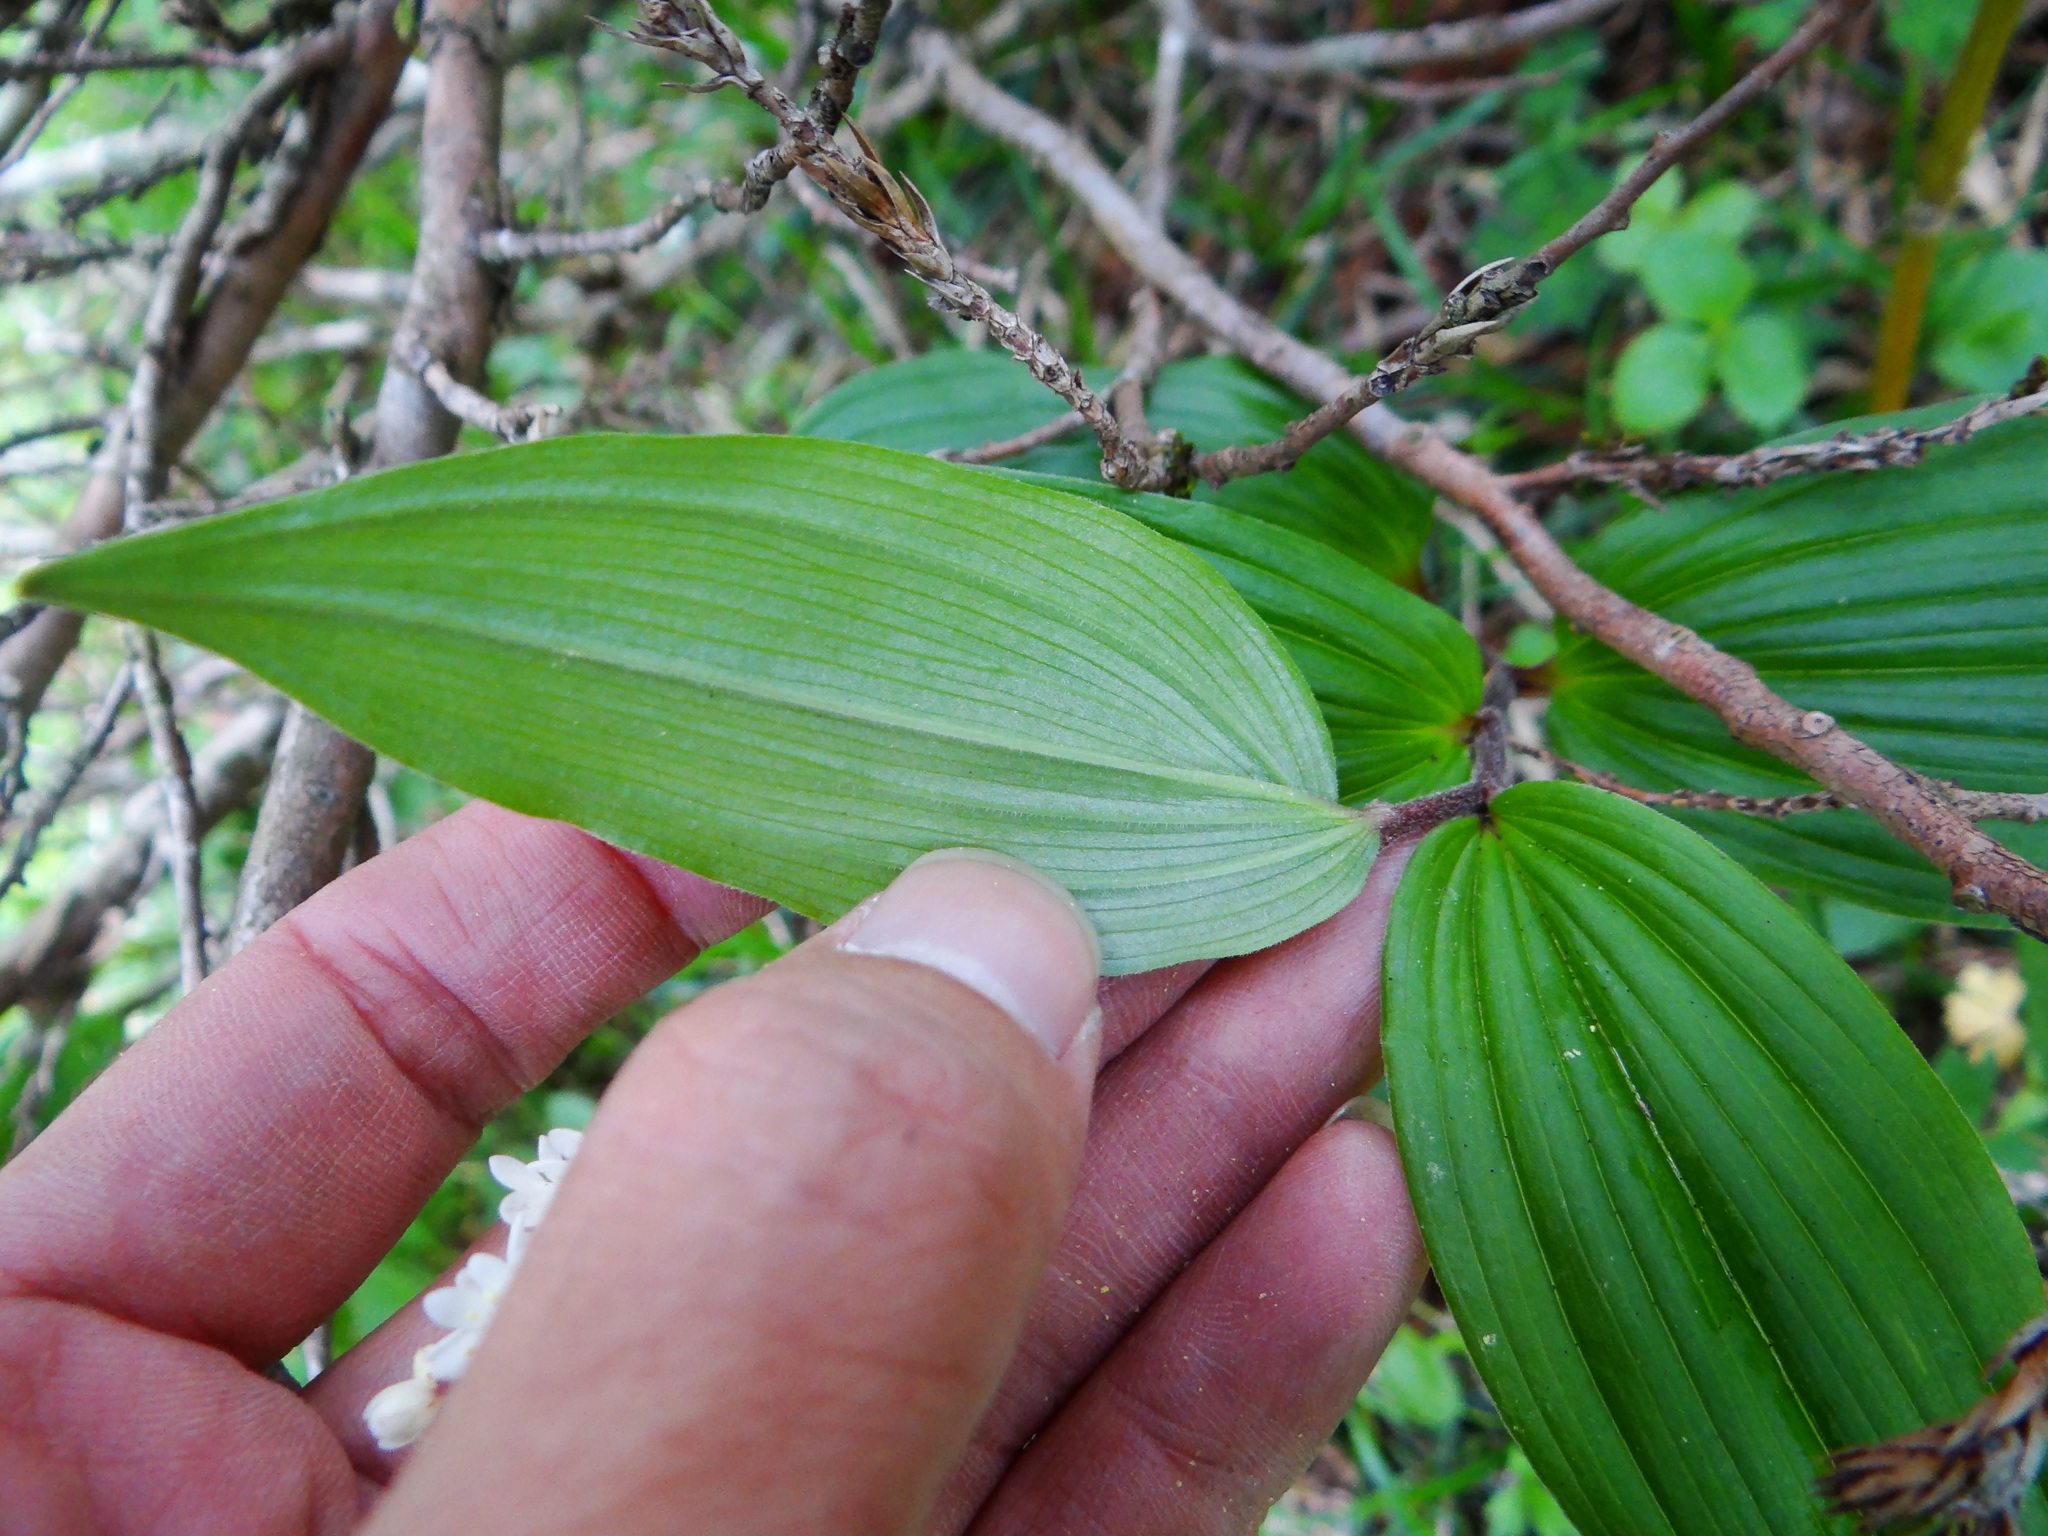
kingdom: Plantae
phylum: Tracheophyta
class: Liliopsida
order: Asparagales
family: Asparagaceae
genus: Maianthemum
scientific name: Maianthemum formosanum
